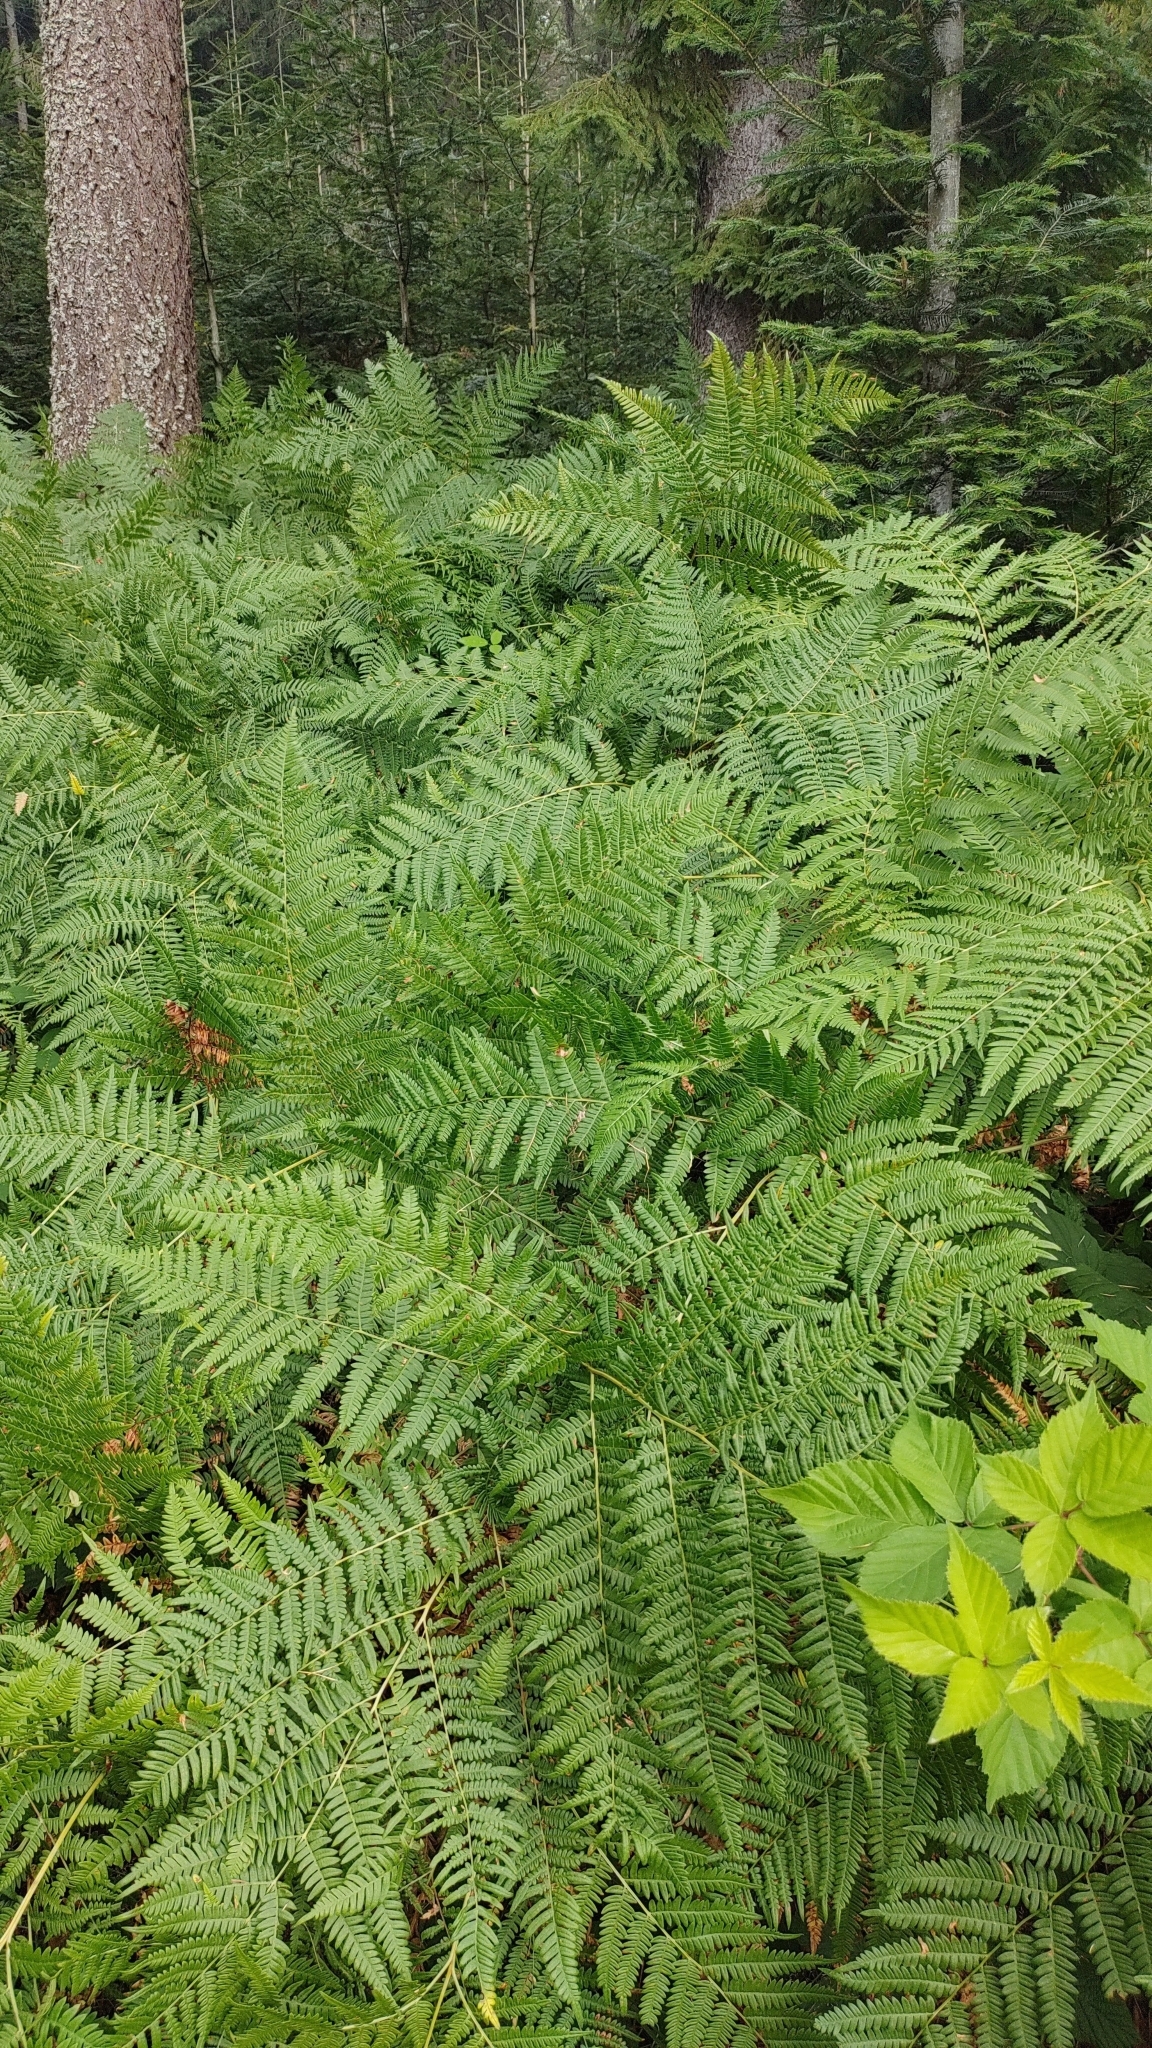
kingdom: Plantae
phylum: Tracheophyta
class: Polypodiopsida
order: Polypodiales
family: Dennstaedtiaceae
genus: Pteridium
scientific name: Pteridium aquilinum
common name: Bracken
